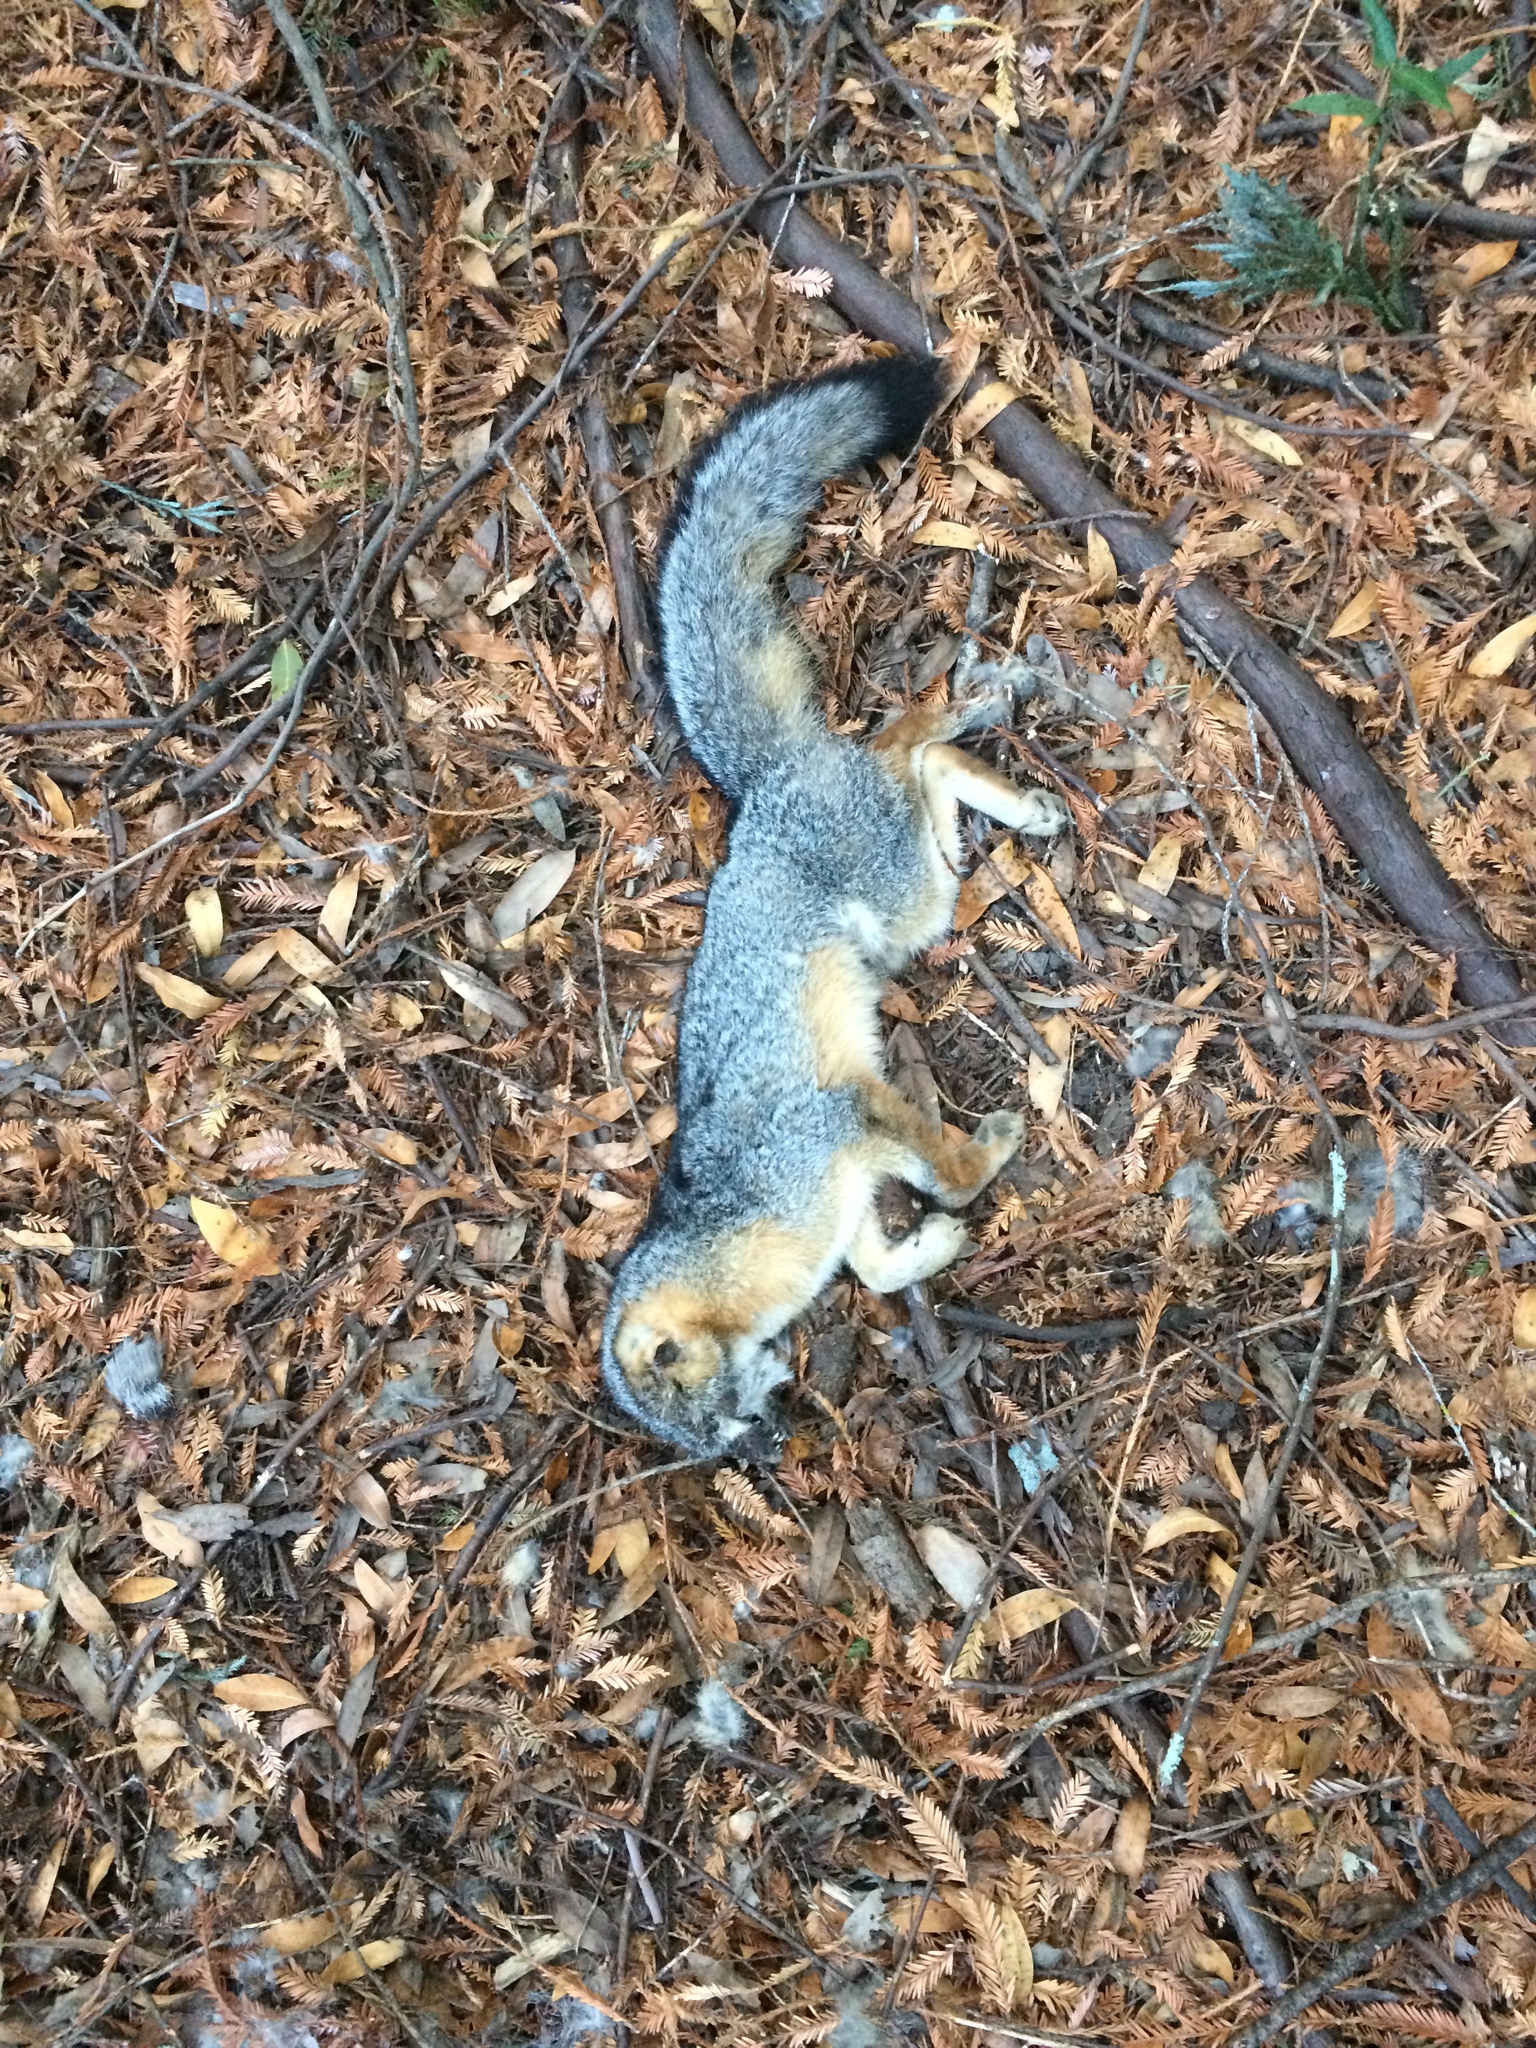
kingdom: Animalia
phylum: Chordata
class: Mammalia
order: Carnivora
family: Canidae
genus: Urocyon
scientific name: Urocyon cinereoargenteus
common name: Gray fox
